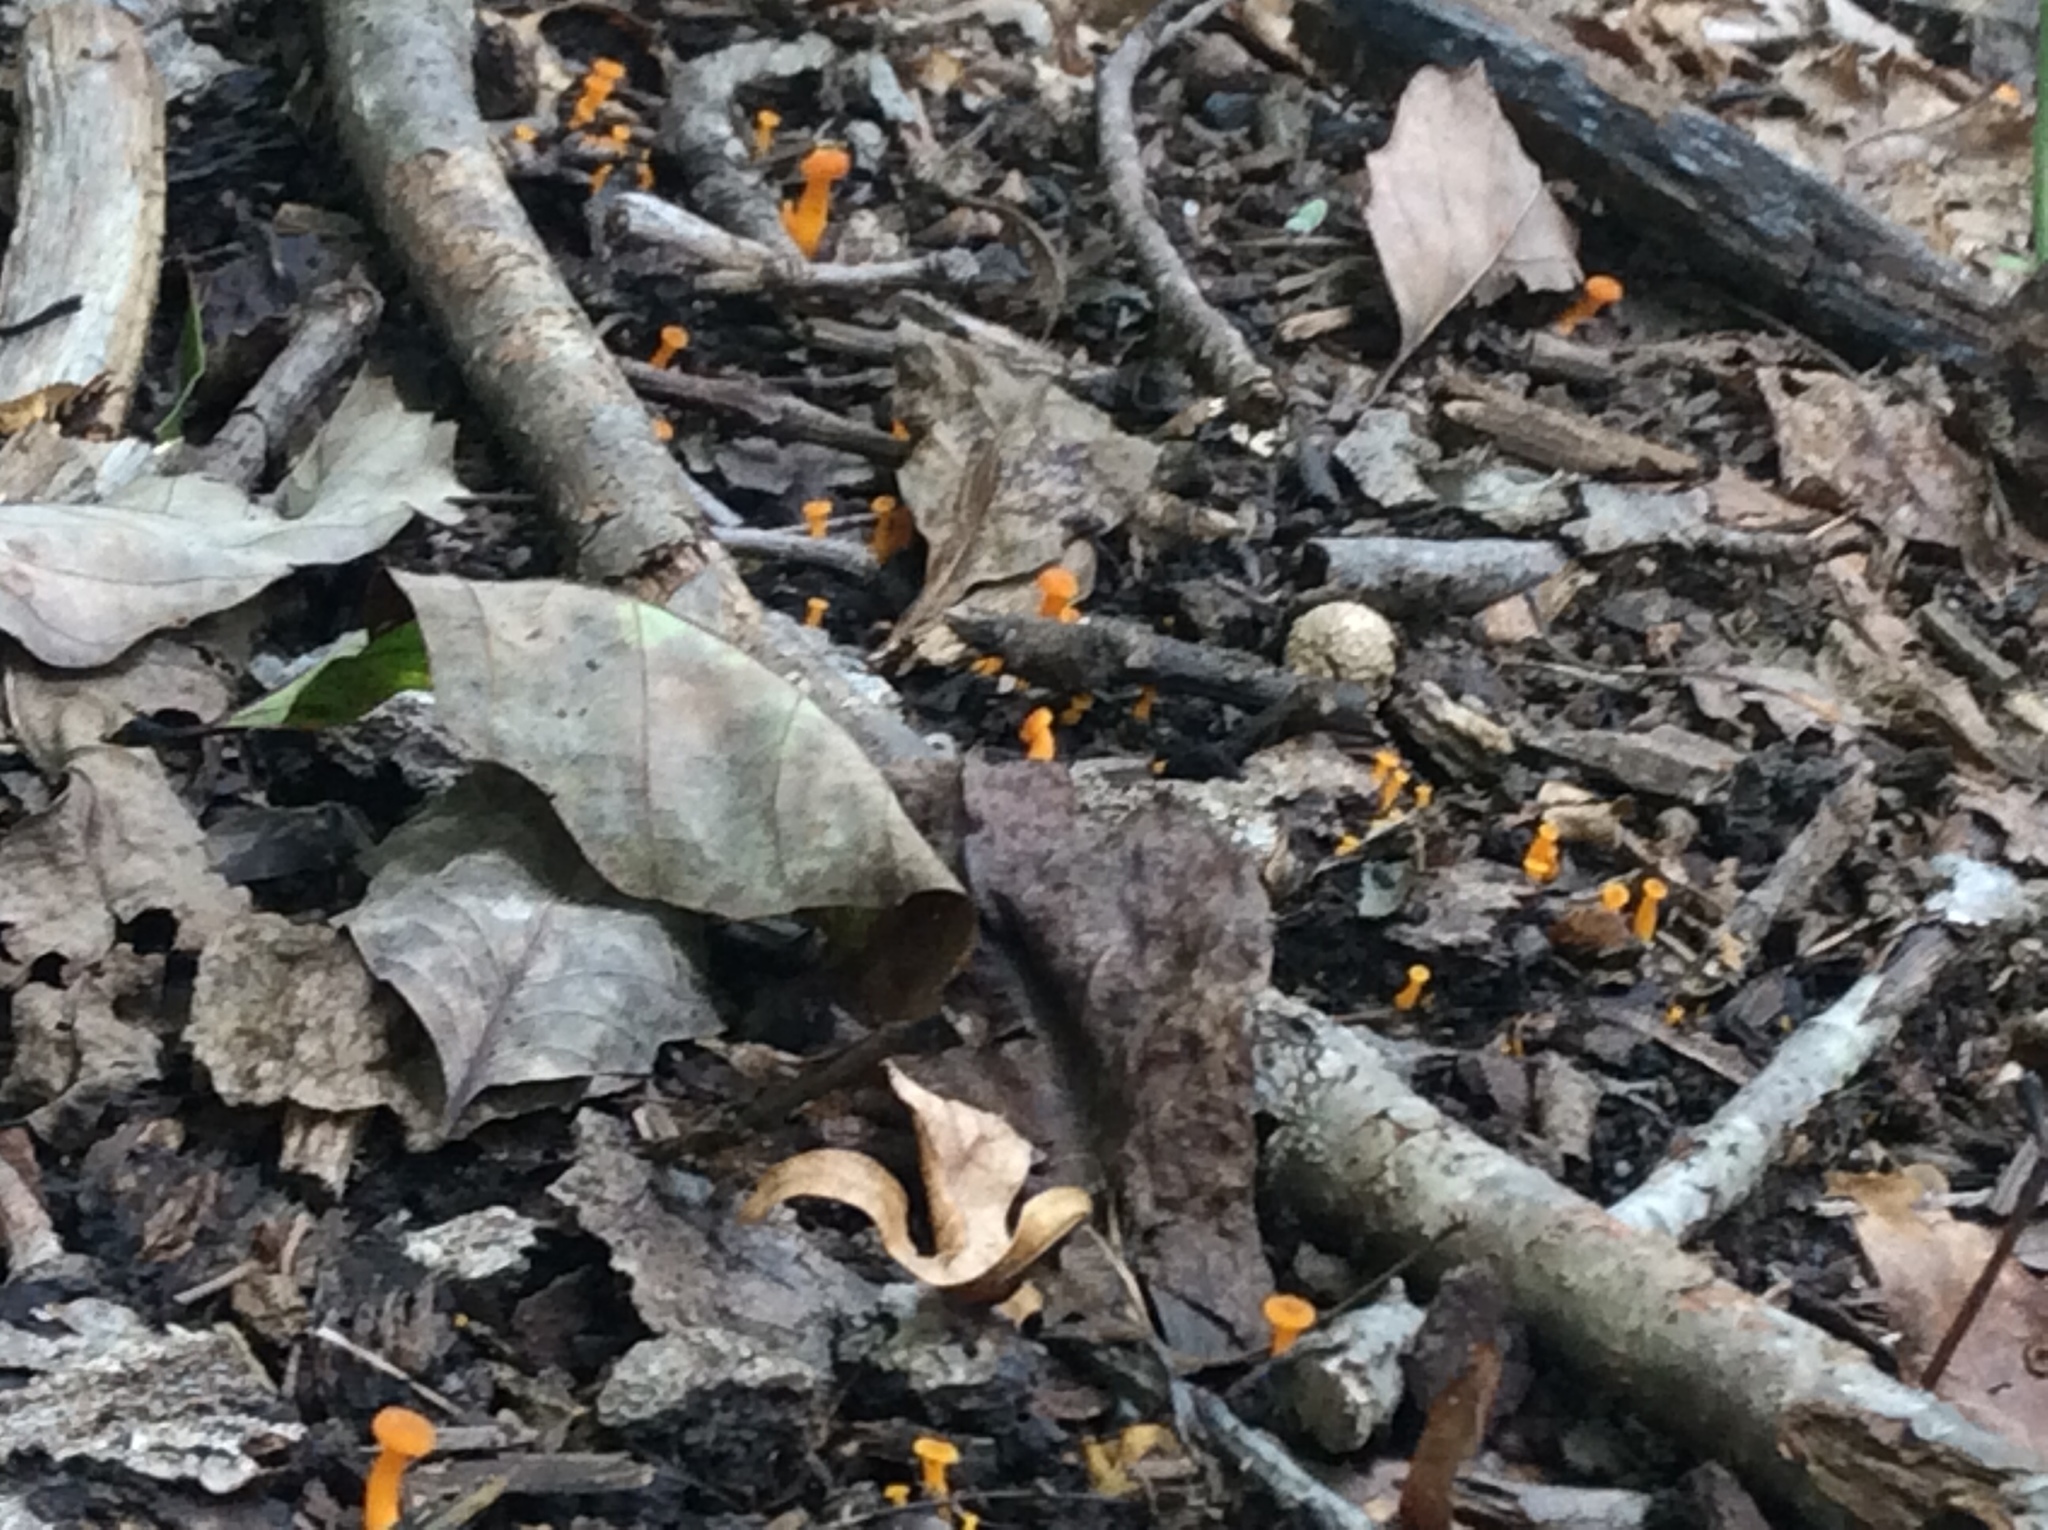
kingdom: Fungi
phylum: Basidiomycota
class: Agaricomycetes
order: Cantharellales
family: Hydnaceae
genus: Craterellus
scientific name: Craterellus ignicolor
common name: Flame chanterelle
